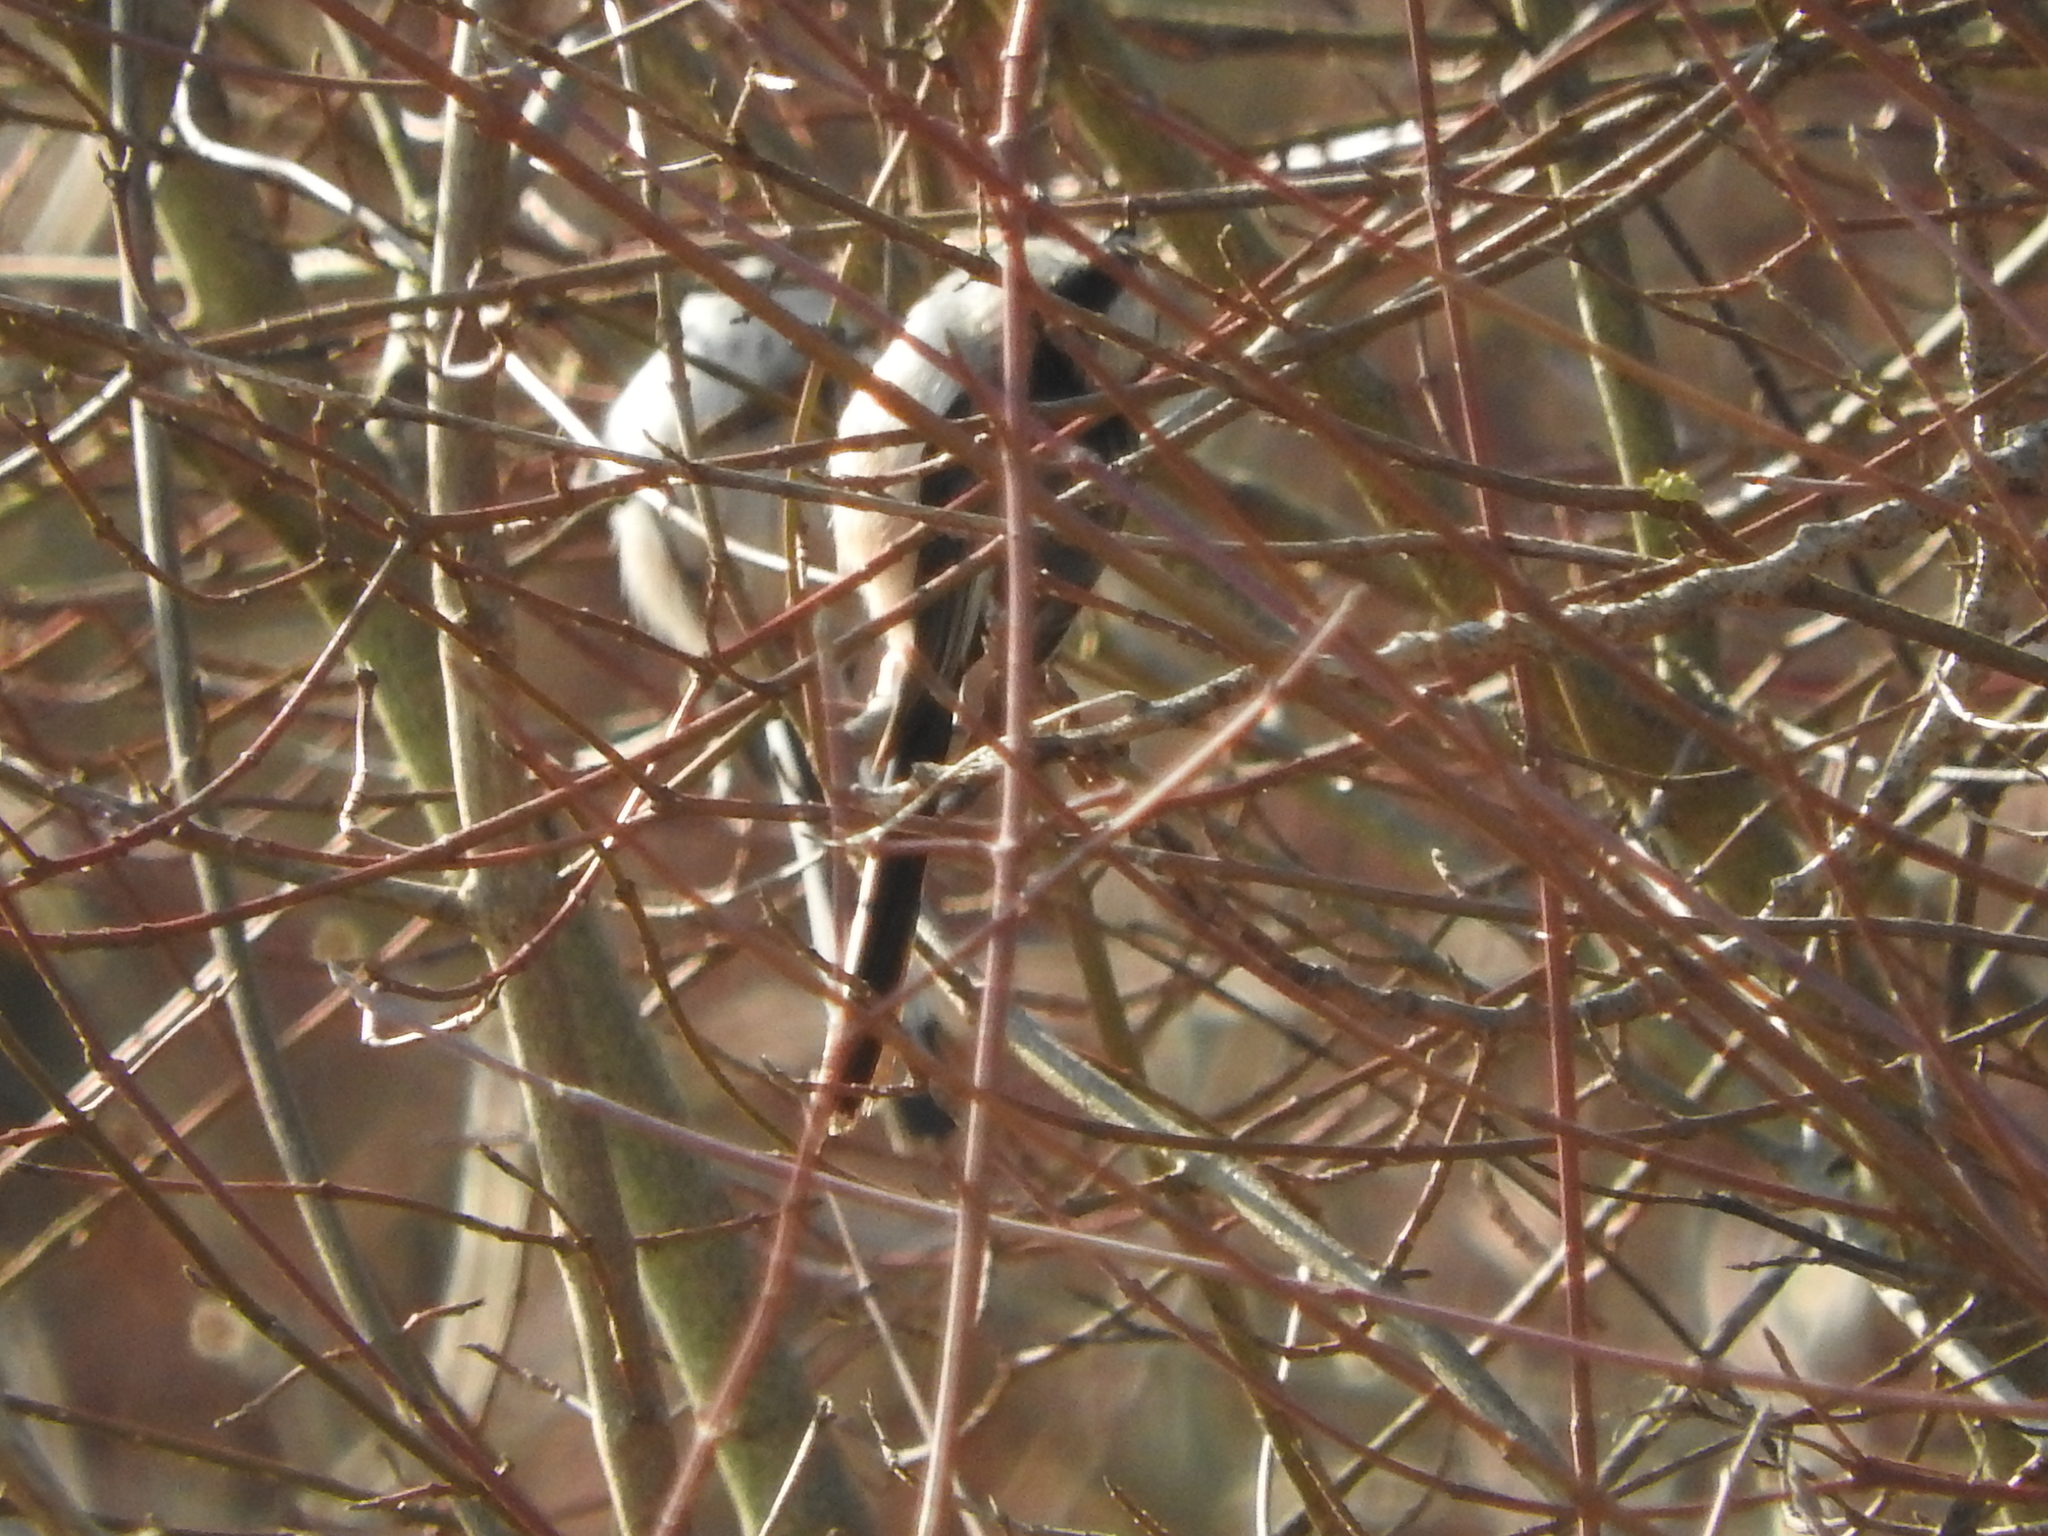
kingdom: Animalia
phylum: Chordata
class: Aves
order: Passeriformes
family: Aegithalidae
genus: Aegithalos
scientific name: Aegithalos caudatus
